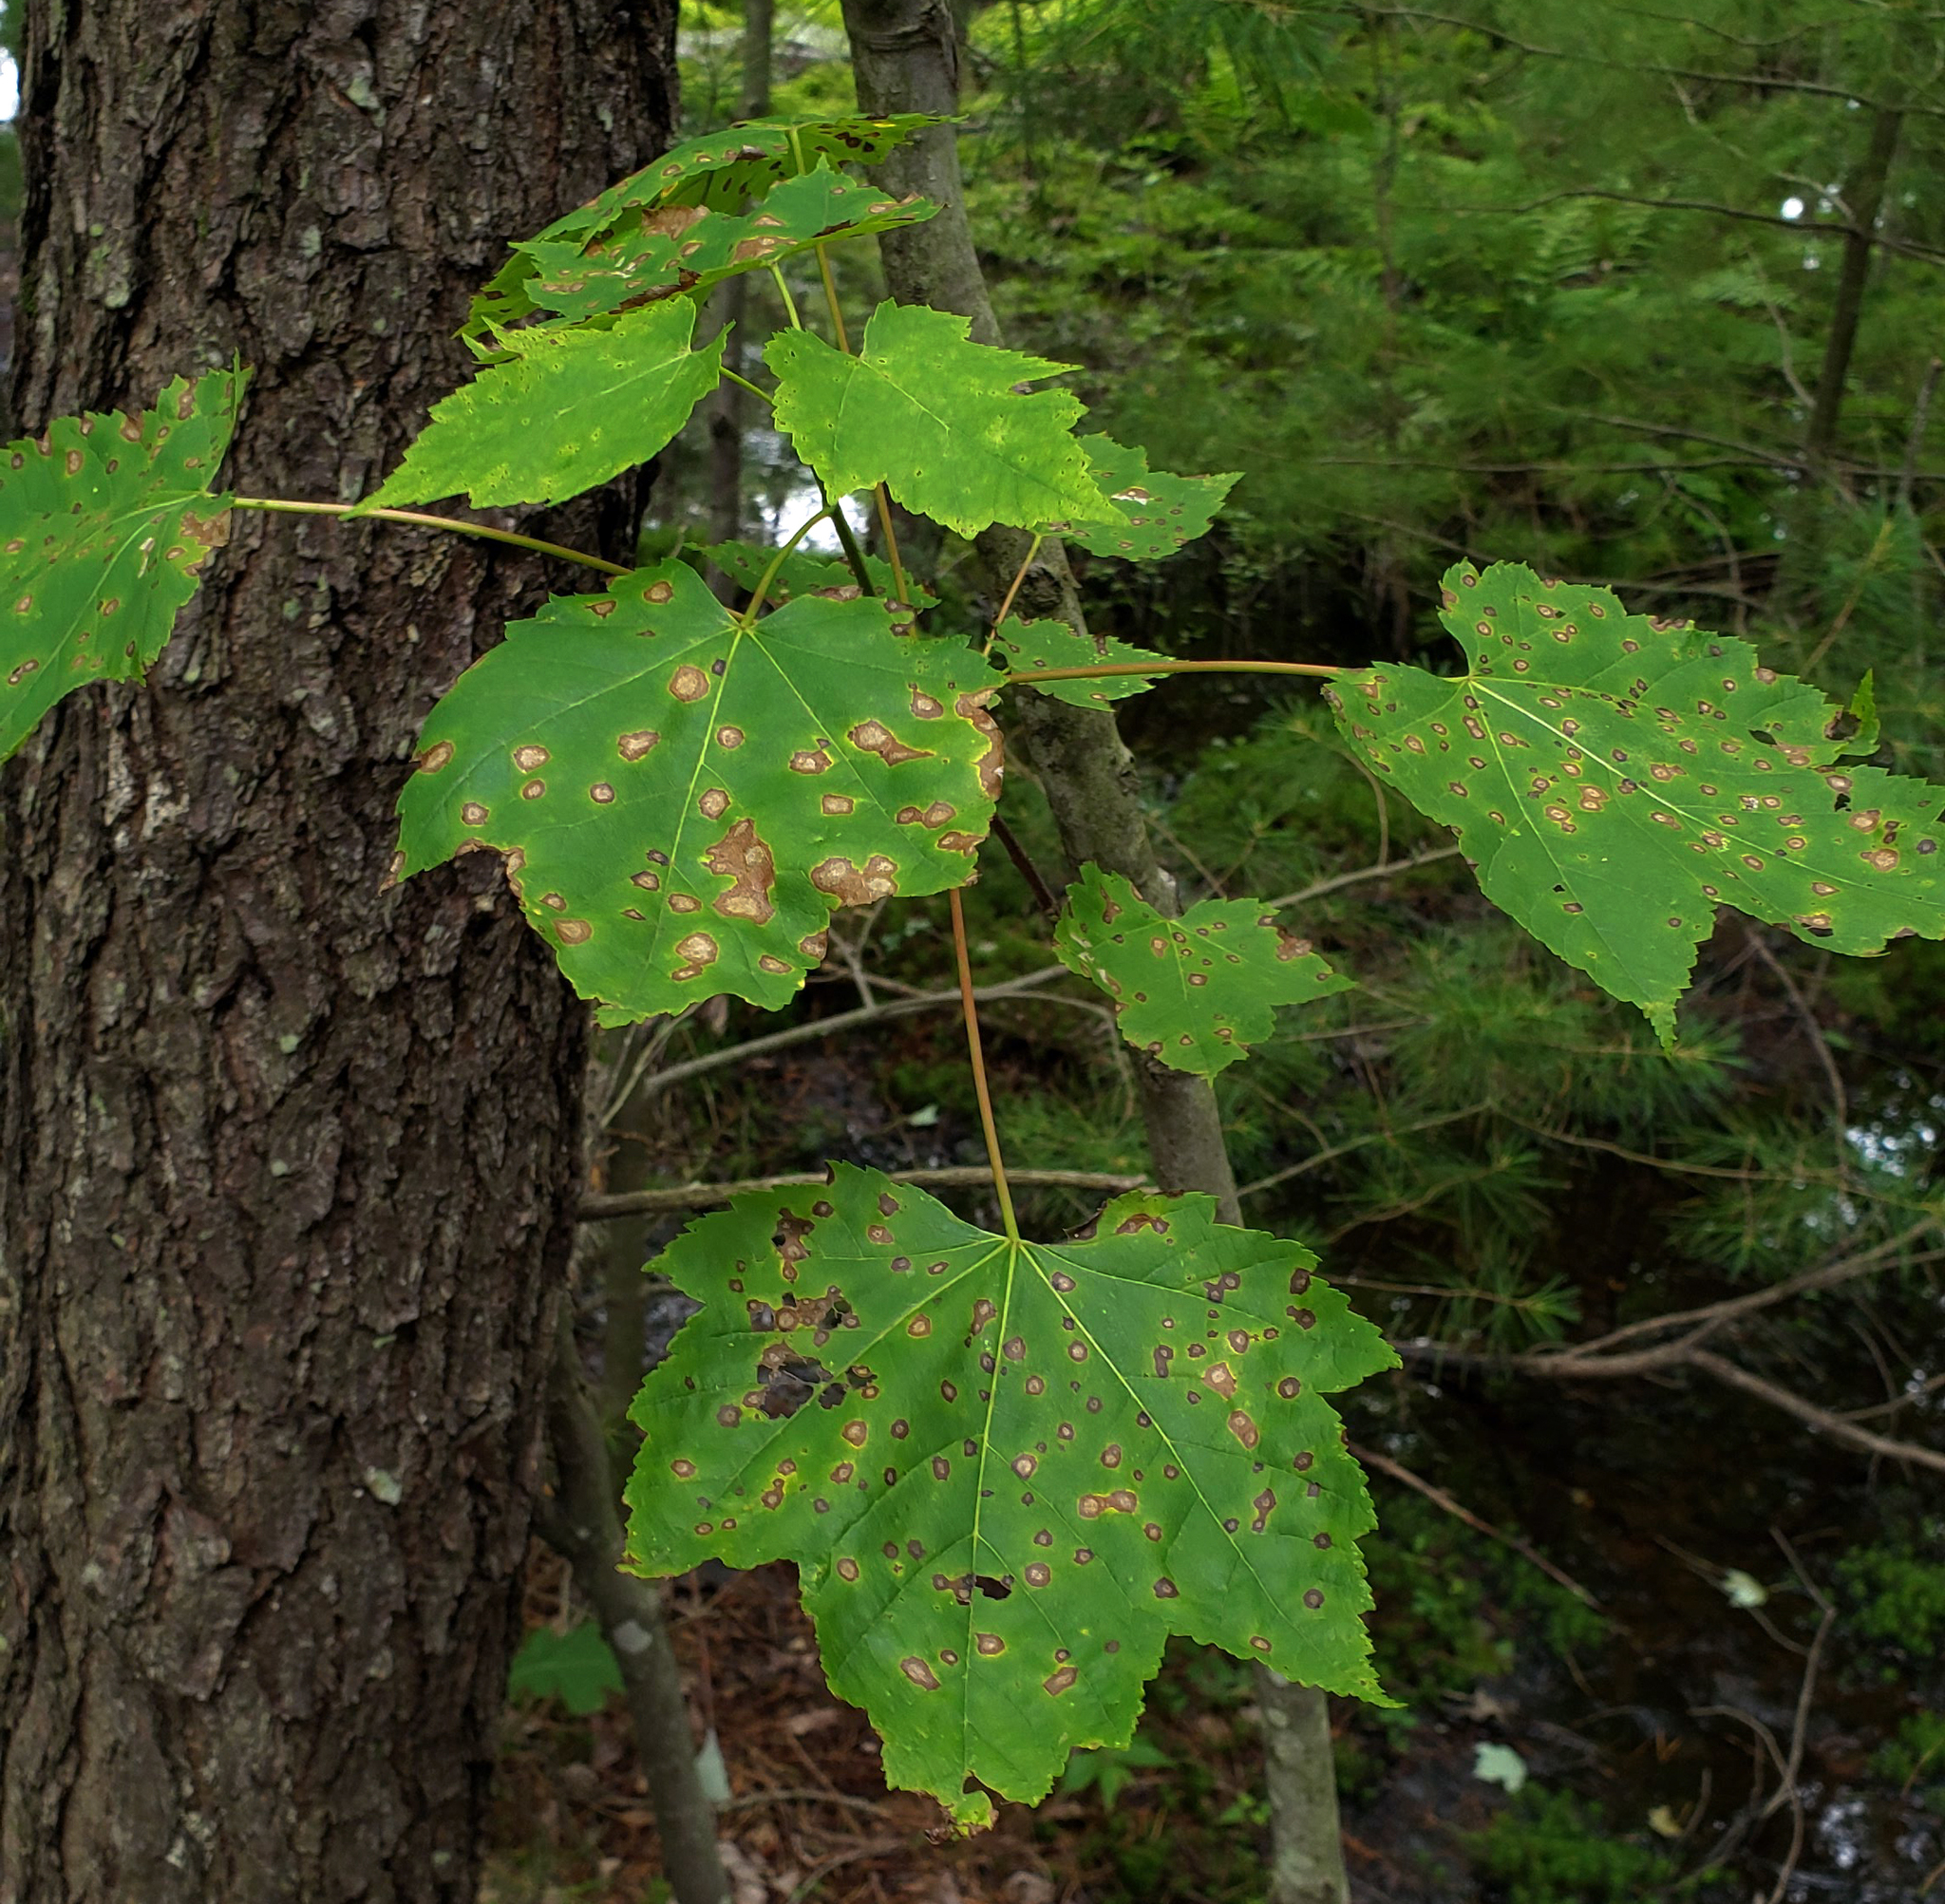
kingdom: Plantae
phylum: Tracheophyta
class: Magnoliopsida
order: Sapindales
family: Sapindaceae
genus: Acer
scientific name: Acer rubrum
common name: Red maple
